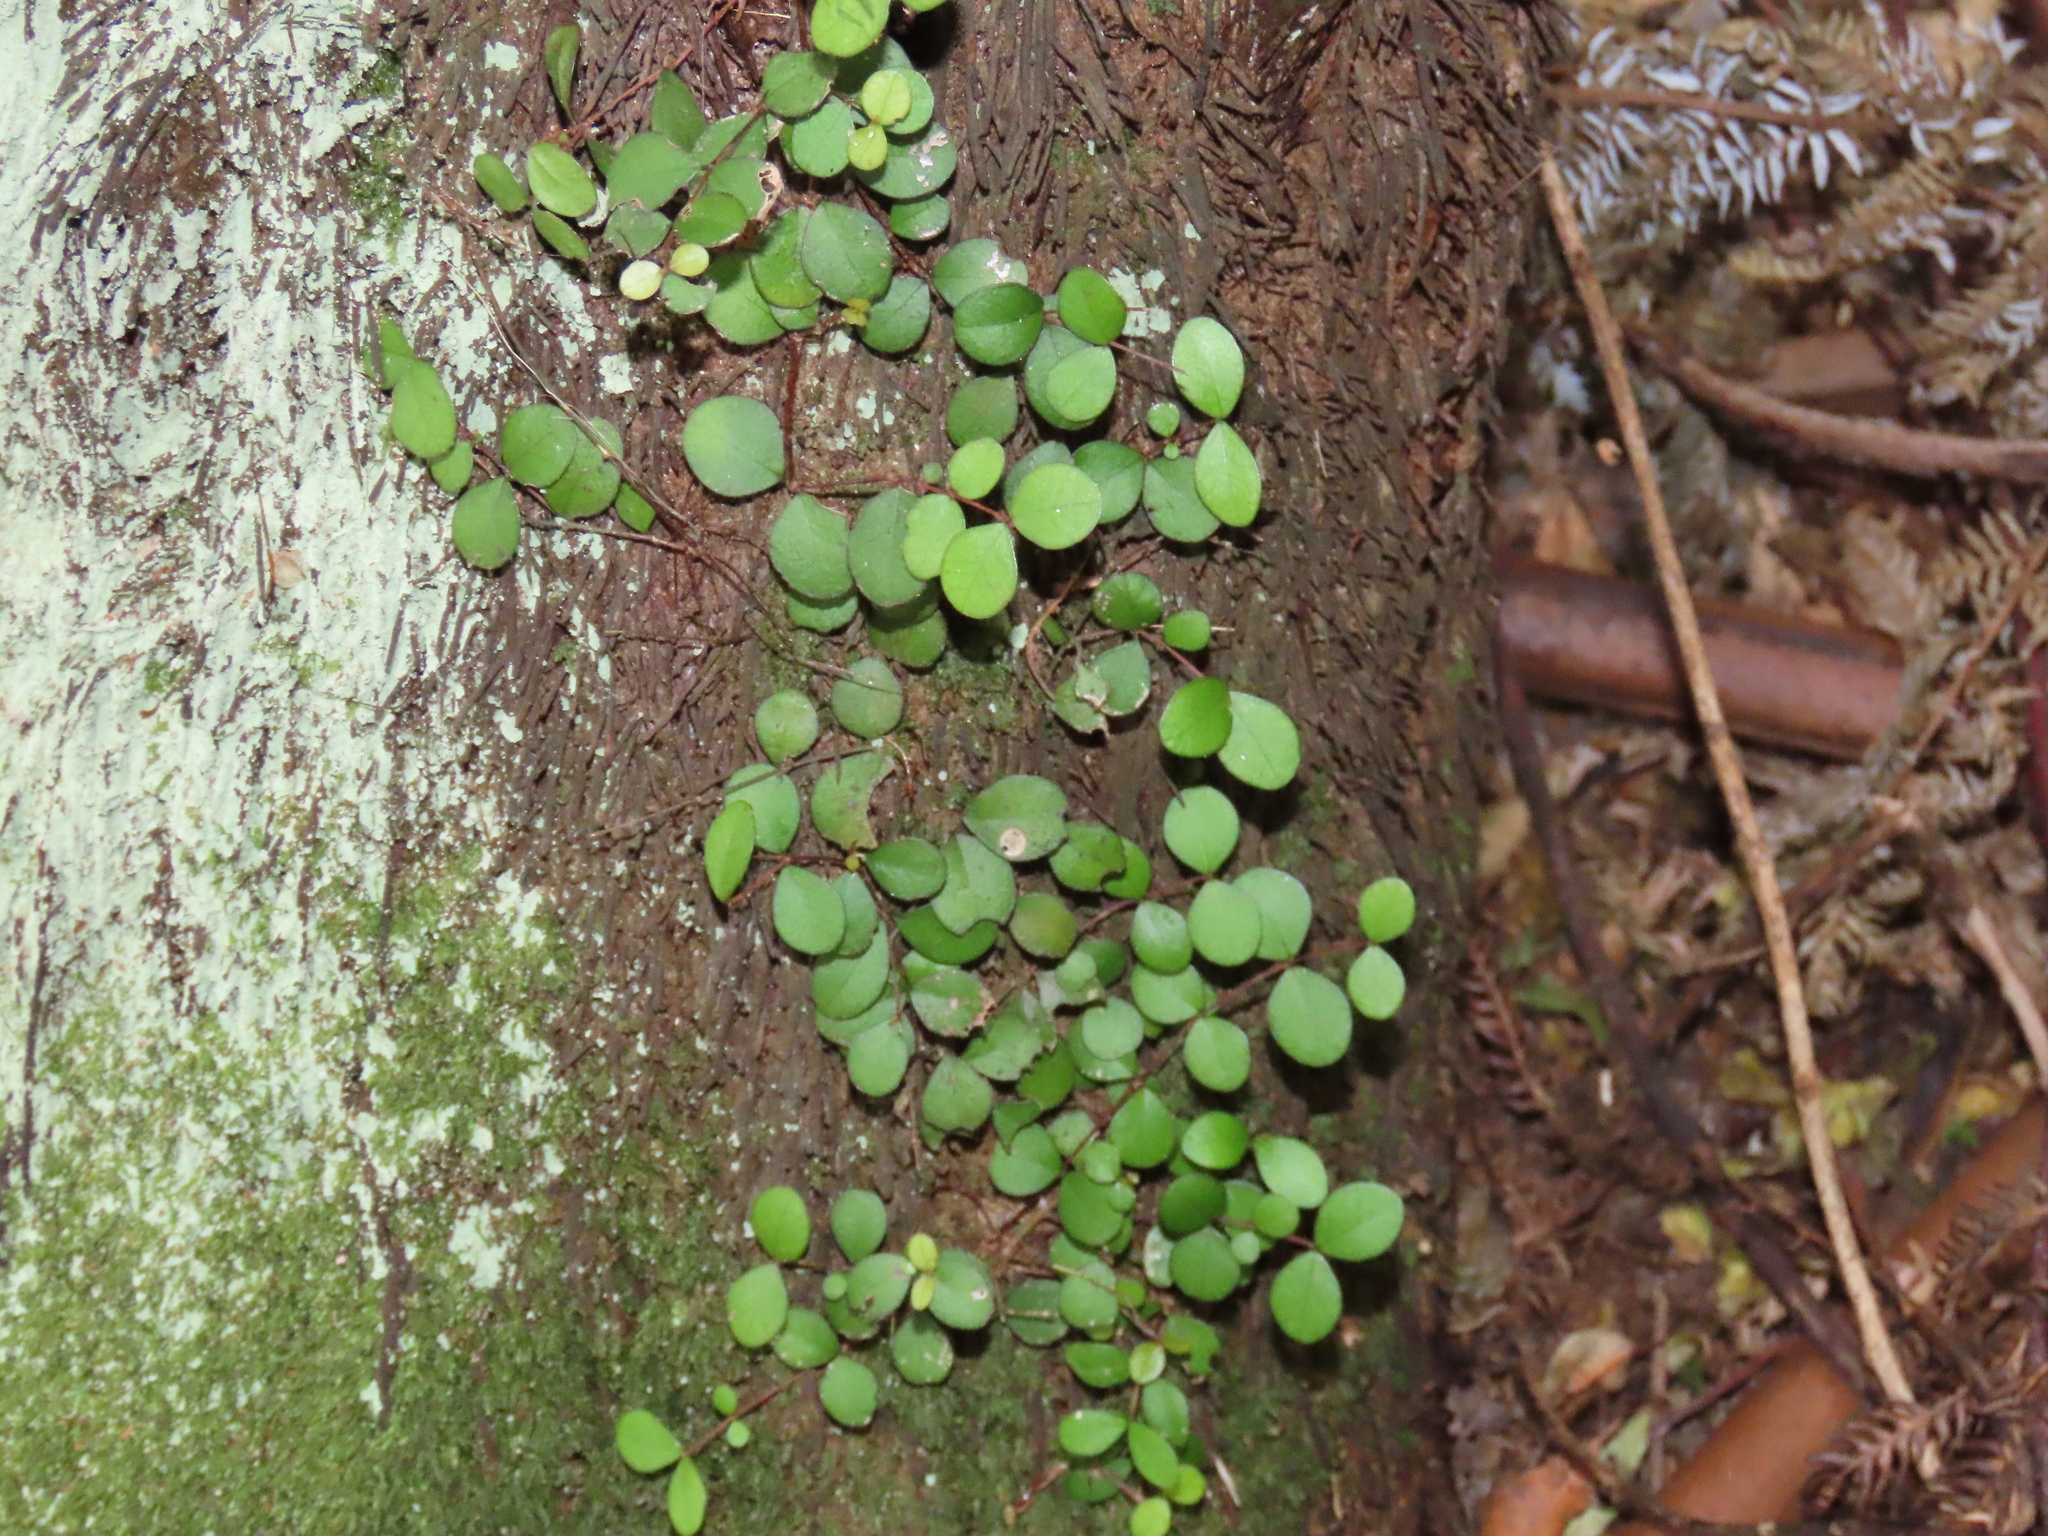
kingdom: Plantae
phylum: Tracheophyta
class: Magnoliopsida
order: Myrtales
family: Myrtaceae
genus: Metrosideros
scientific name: Metrosideros perforata
